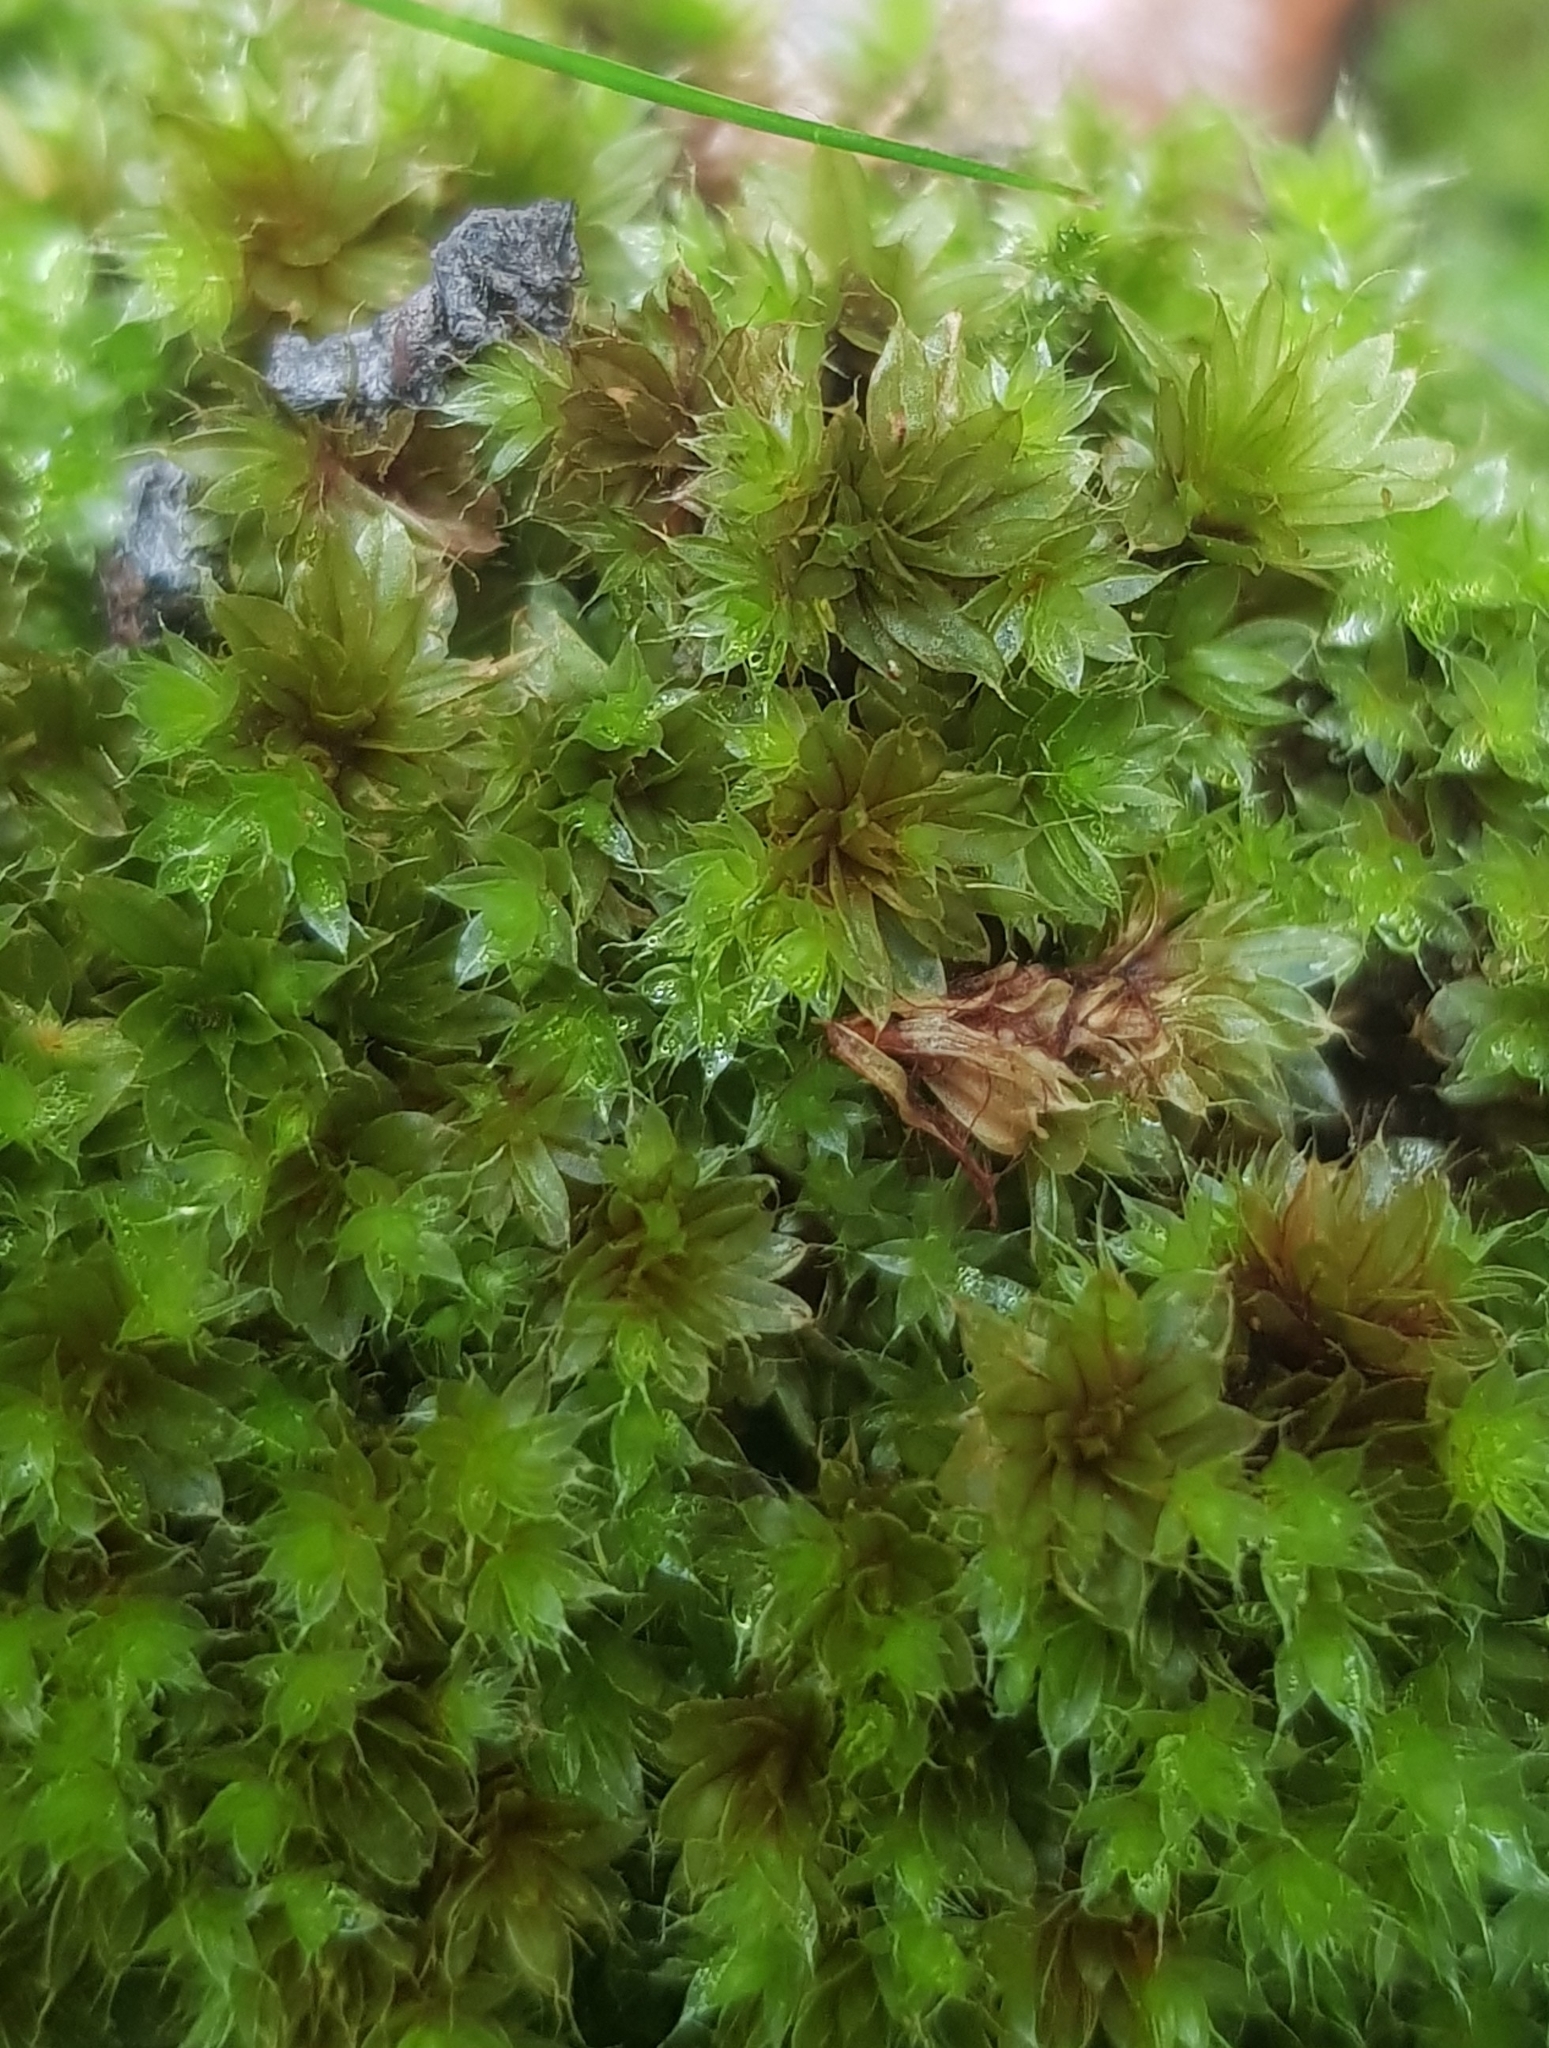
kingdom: Plantae
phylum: Bryophyta
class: Bryopsida
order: Bryales
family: Bryaceae
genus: Rosulabryum
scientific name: Rosulabryum capillare
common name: Capillary thread-moss
